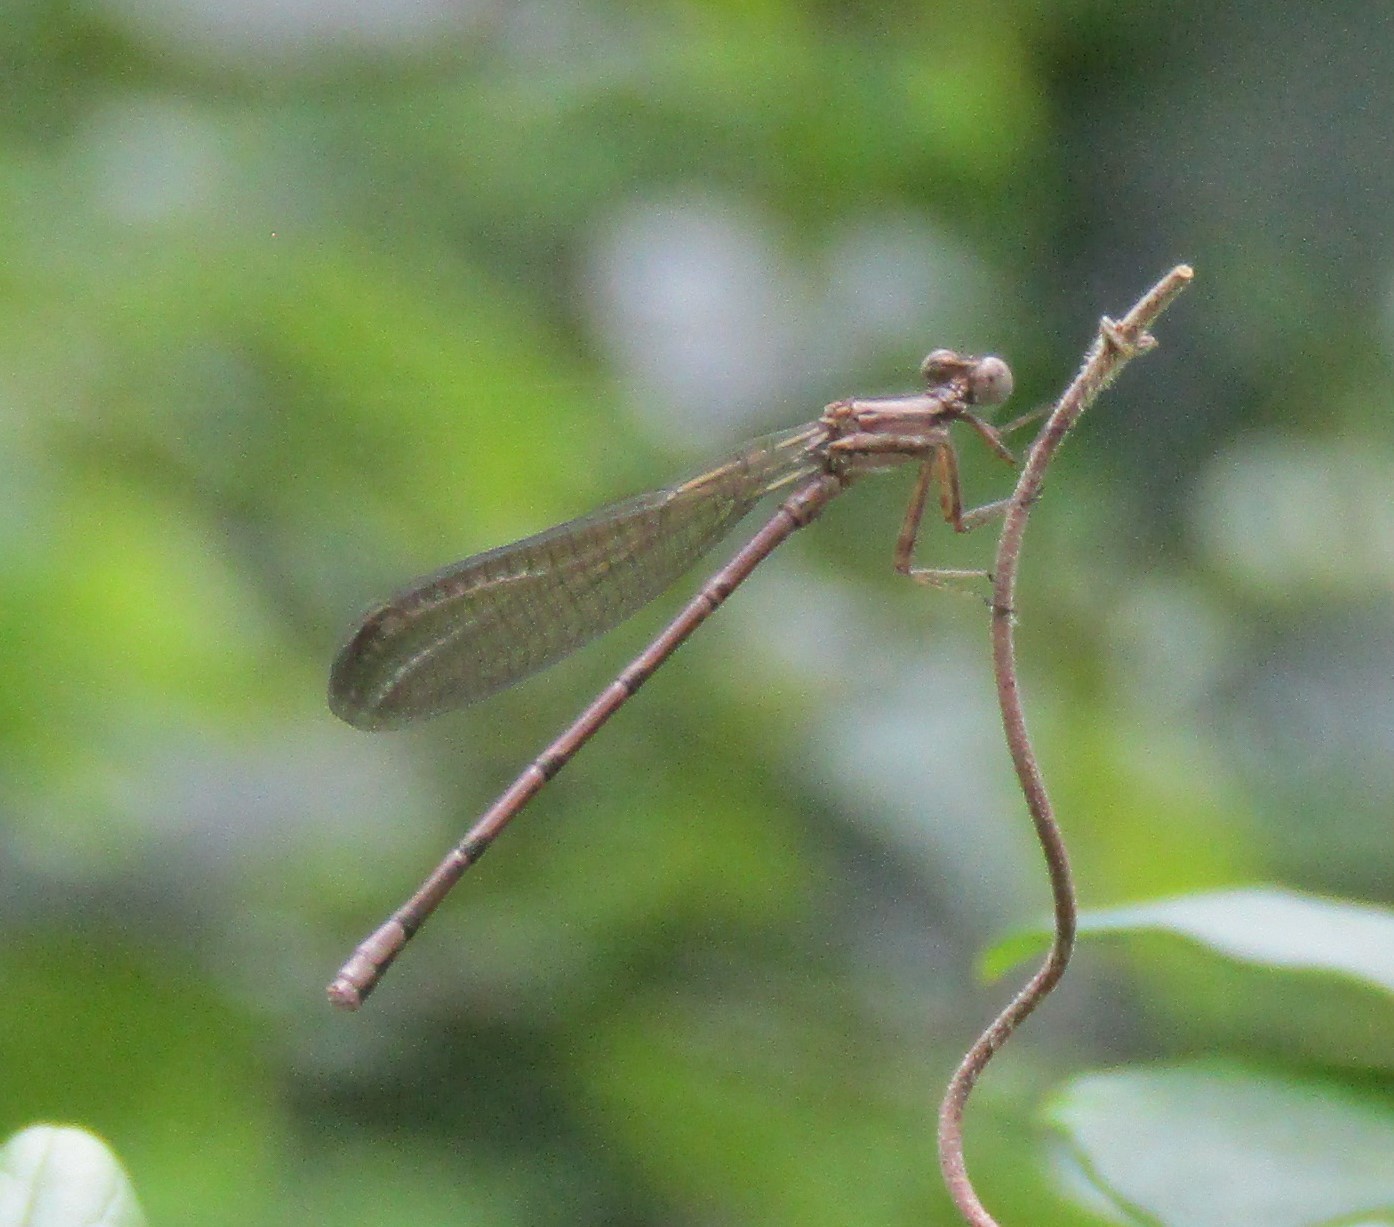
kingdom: Animalia
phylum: Arthropoda
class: Insecta
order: Odonata
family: Coenagrionidae
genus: Argia
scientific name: Argia fumipennis
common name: Variable dancer
